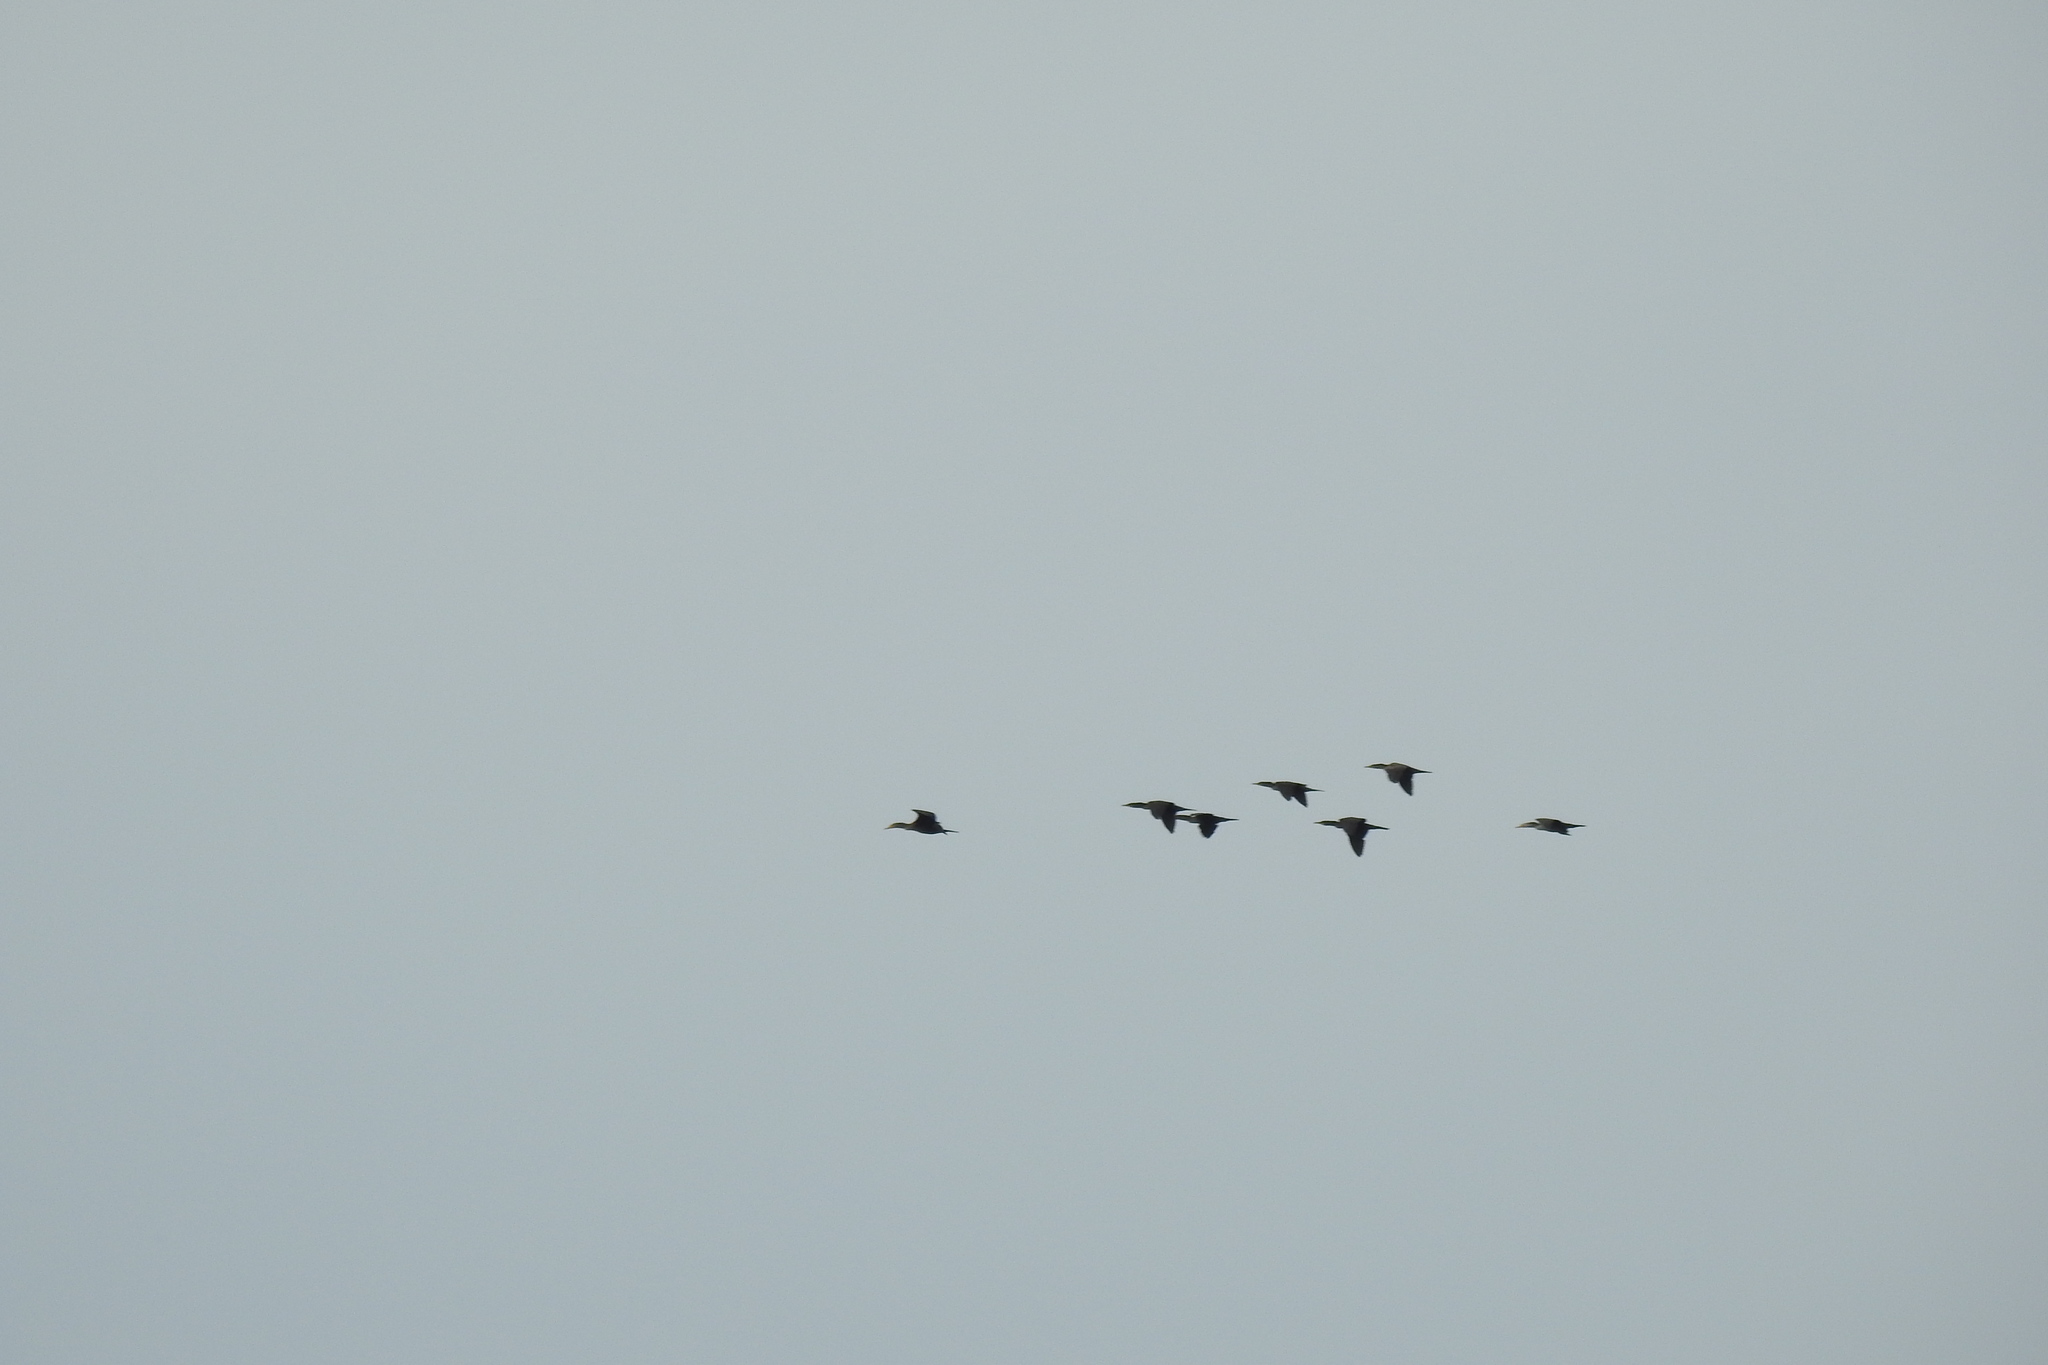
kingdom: Animalia
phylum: Chordata
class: Aves
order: Suliformes
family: Phalacrocoracidae
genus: Phalacrocorax
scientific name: Phalacrocorax auritus
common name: Double-crested cormorant
